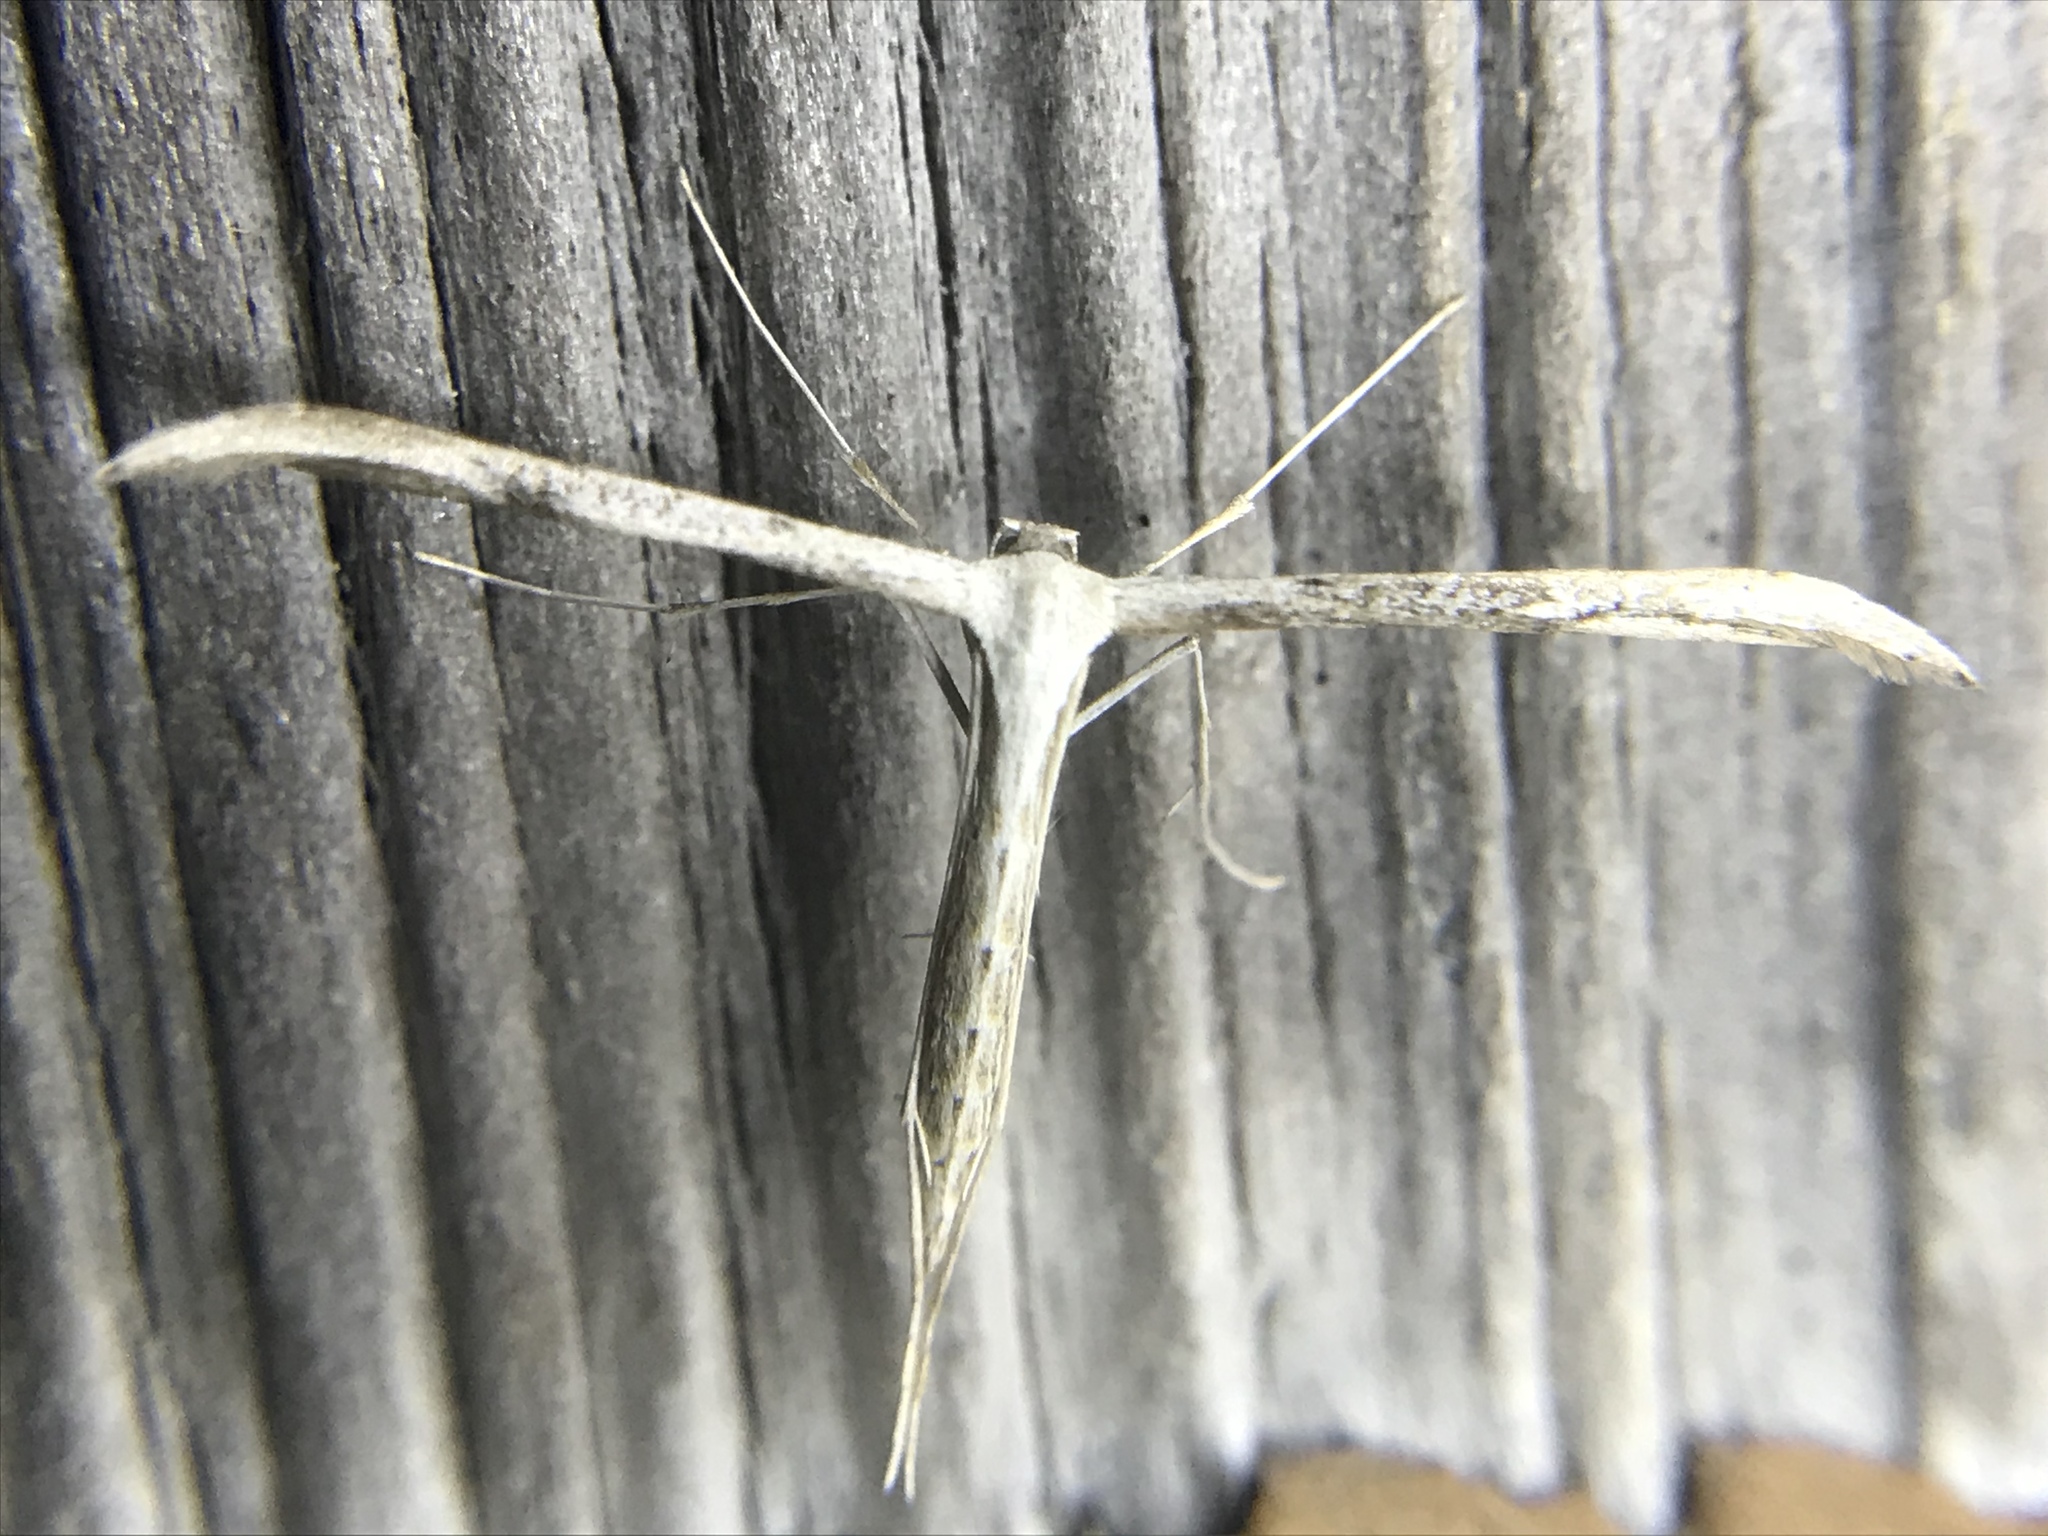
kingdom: Animalia
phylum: Arthropoda
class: Insecta
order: Lepidoptera
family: Pterophoridae
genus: Emmelina
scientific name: Emmelina monodactyla
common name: Common plume
